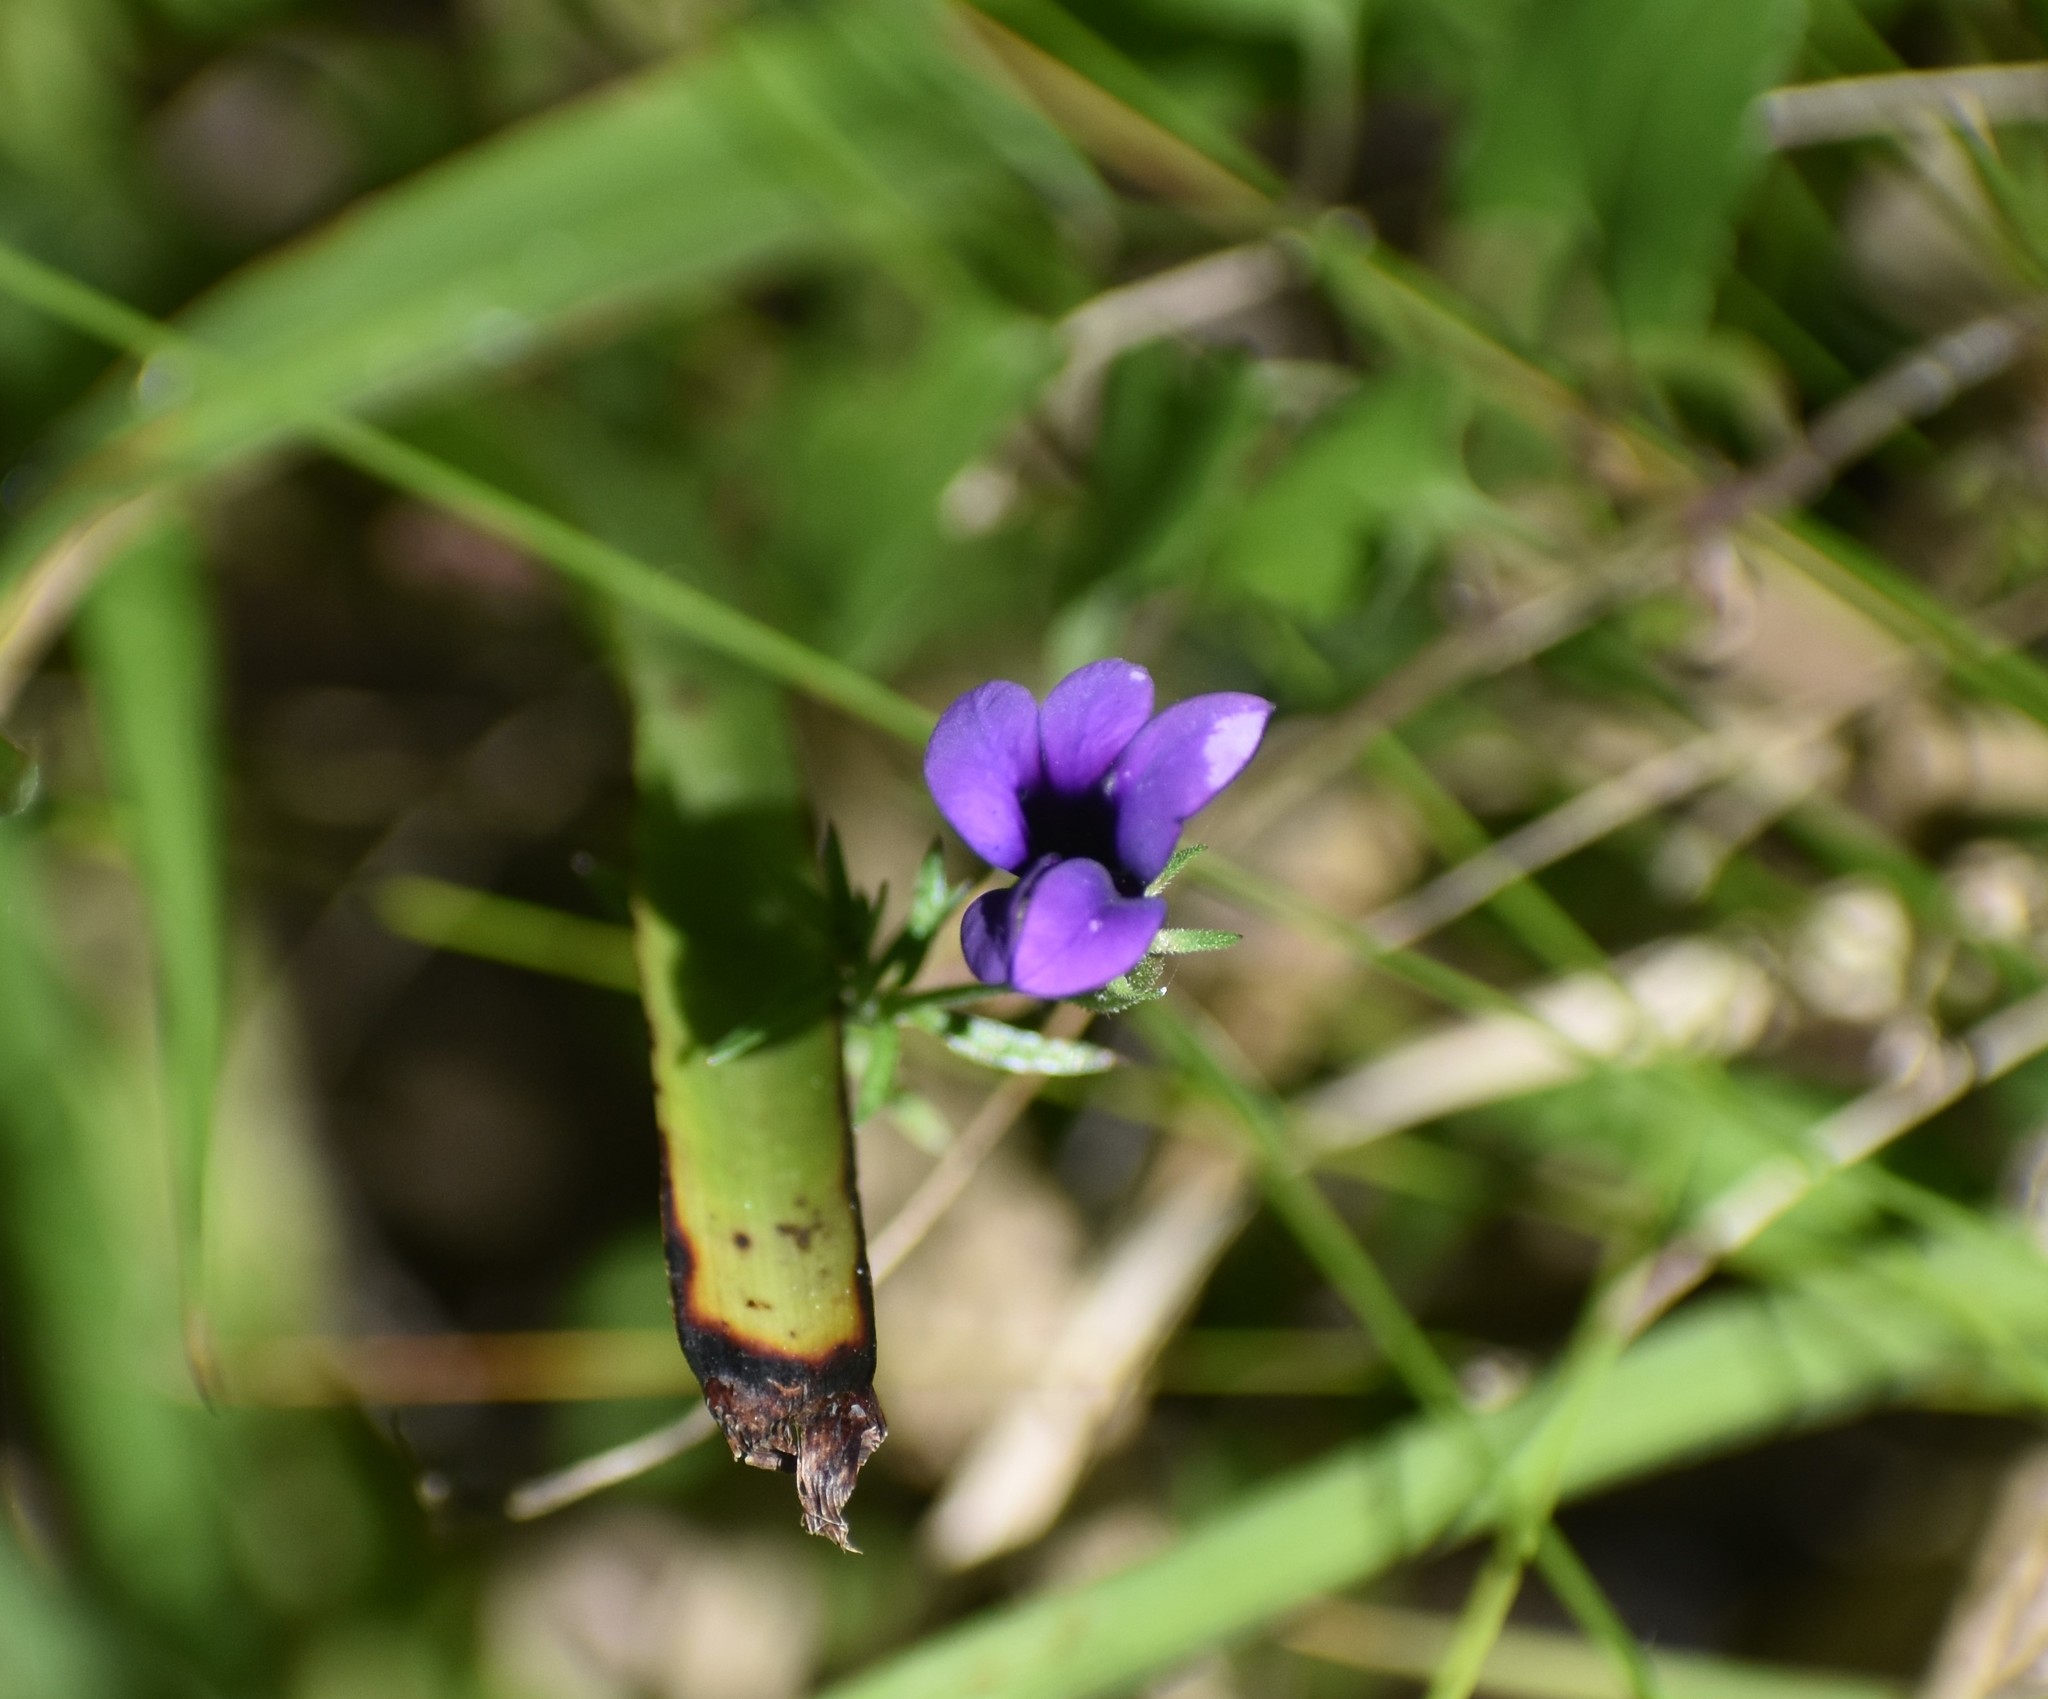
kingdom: Plantae
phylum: Tracheophyta
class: Magnoliopsida
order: Asterales
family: Campanulaceae
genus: Monopsis
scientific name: Monopsis unidentata
